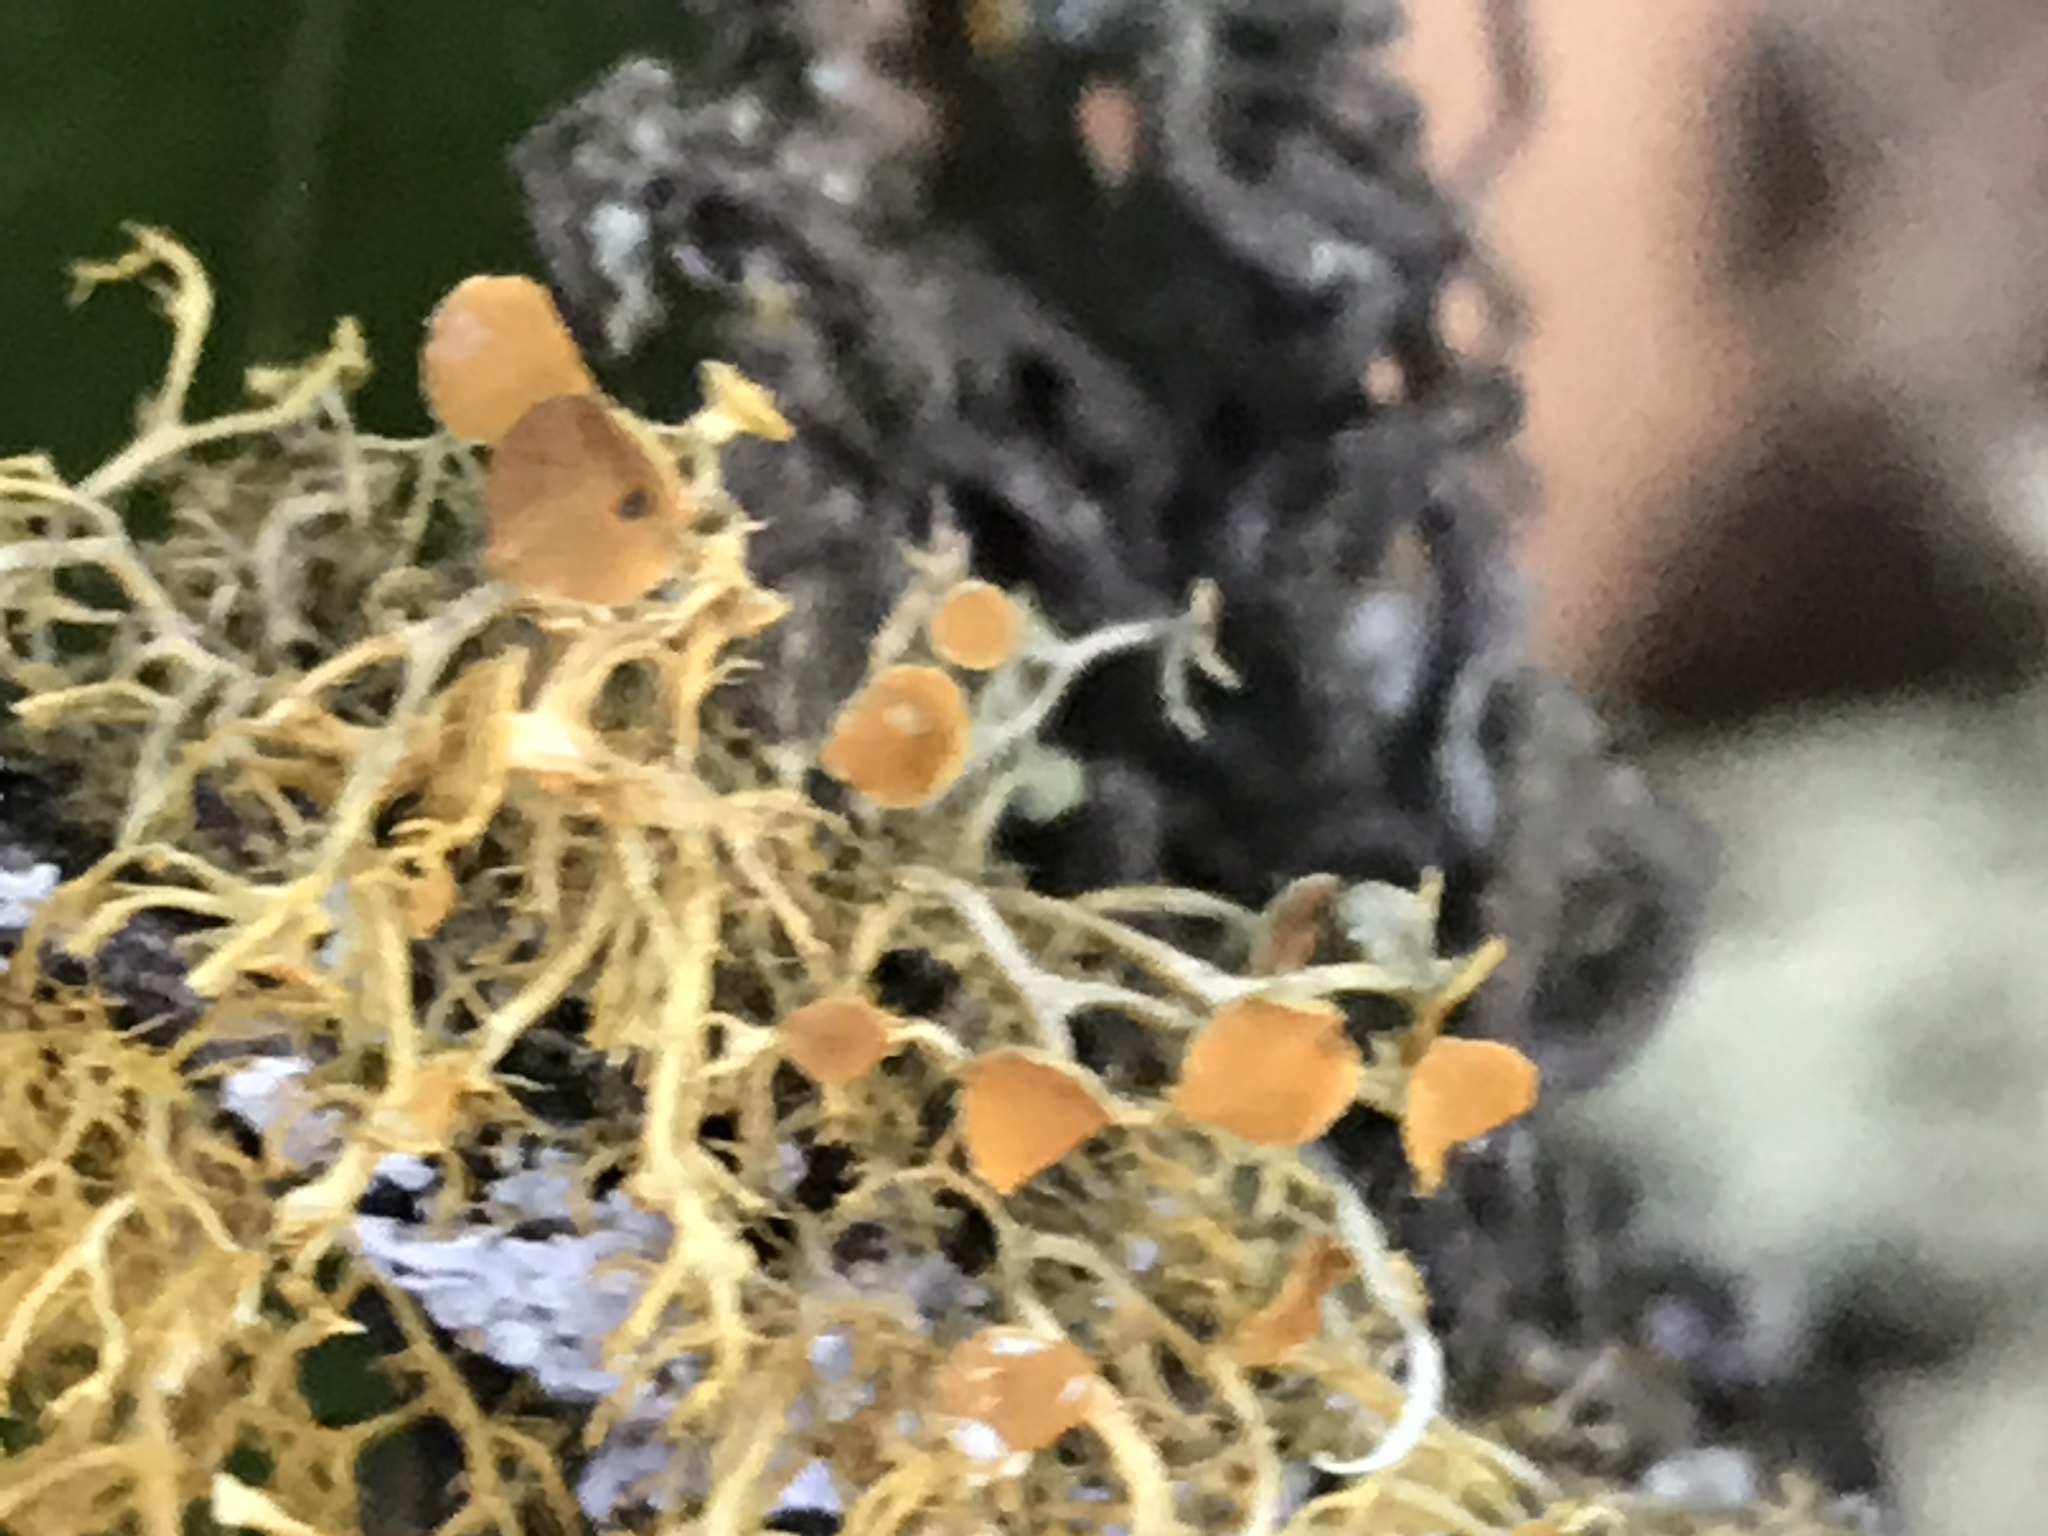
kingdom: Fungi
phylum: Ascomycota
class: Lecanoromycetes
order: Teloschistales
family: Teloschistaceae
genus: Teloschistes
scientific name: Teloschistes exilis
